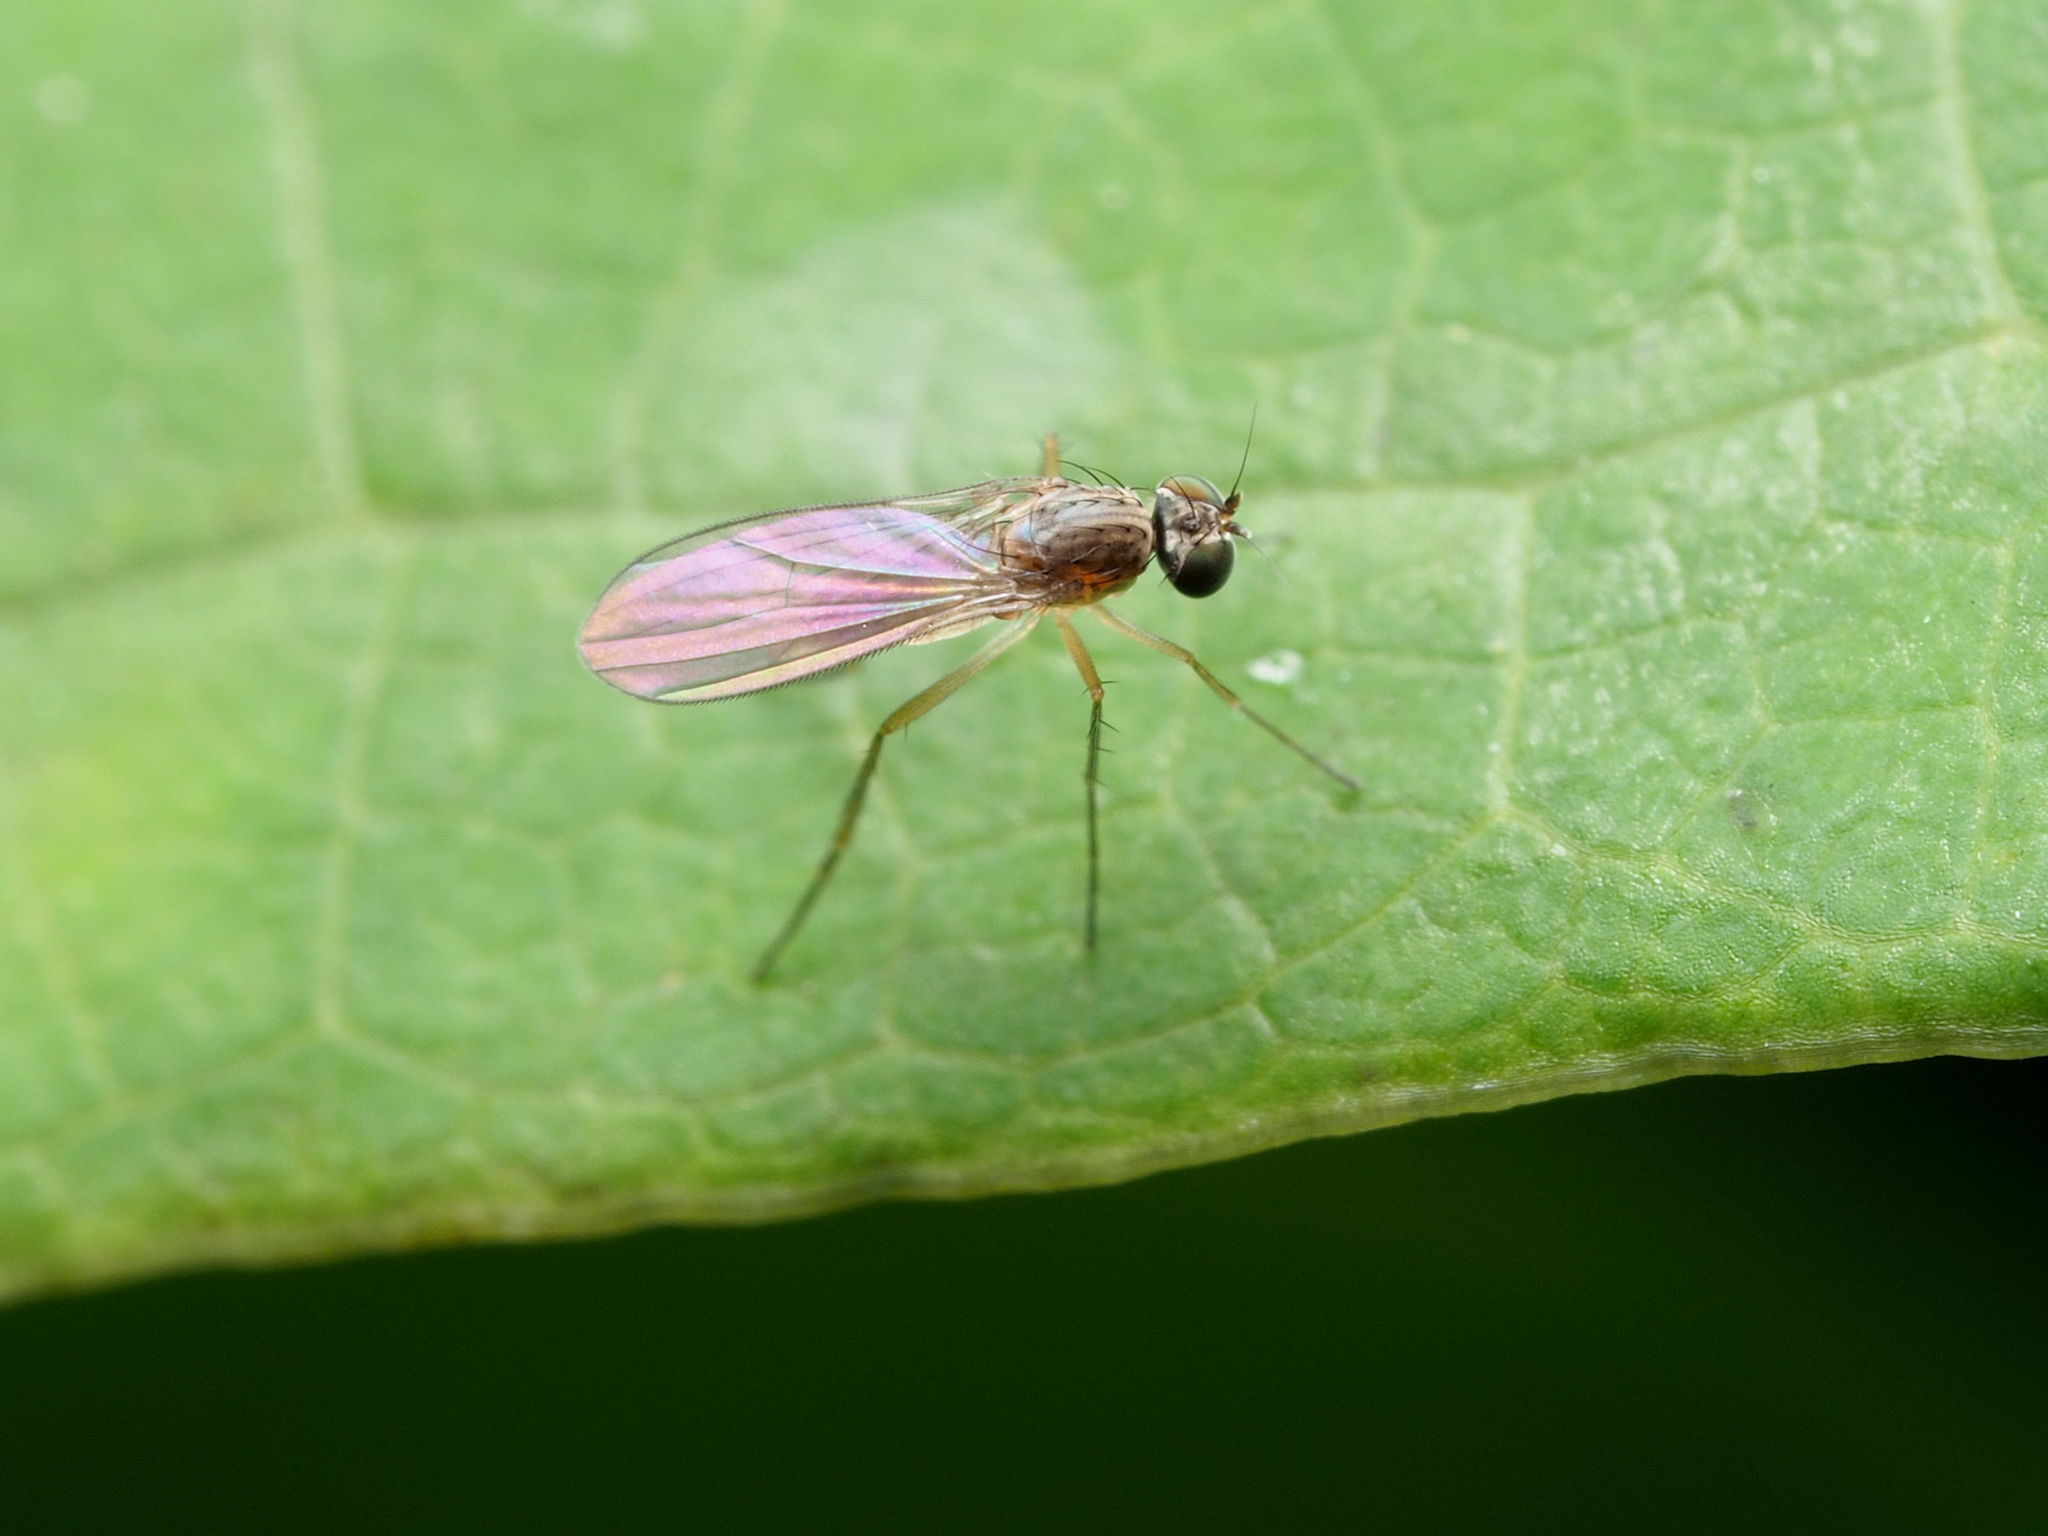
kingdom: Animalia
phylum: Arthropoda
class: Insecta
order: Diptera
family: Dolichopodidae
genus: Sympycnus
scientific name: Sympycnus lineatus
